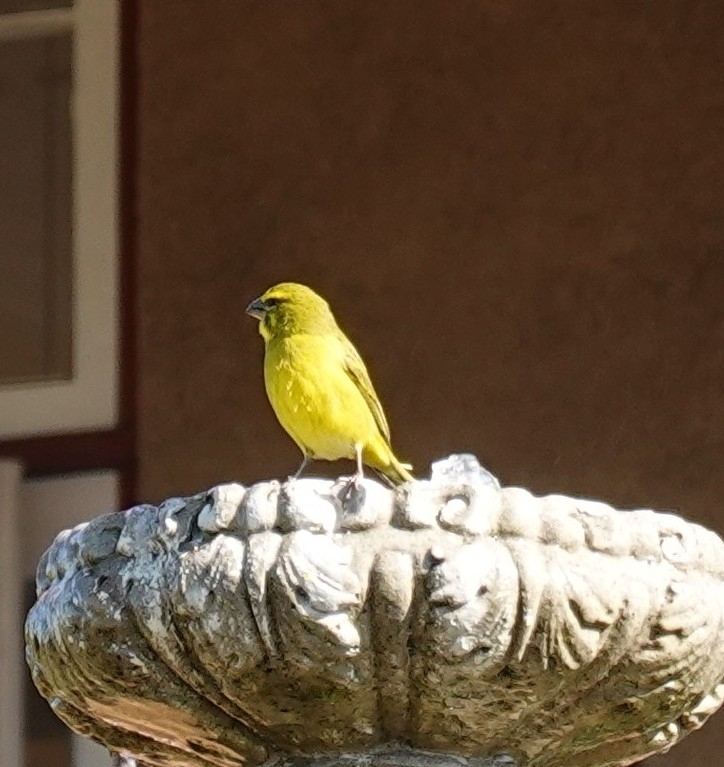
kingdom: Animalia
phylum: Chordata
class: Aves
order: Passeriformes
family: Fringillidae
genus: Crithagra
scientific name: Crithagra flaviventris
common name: Yellow canary
